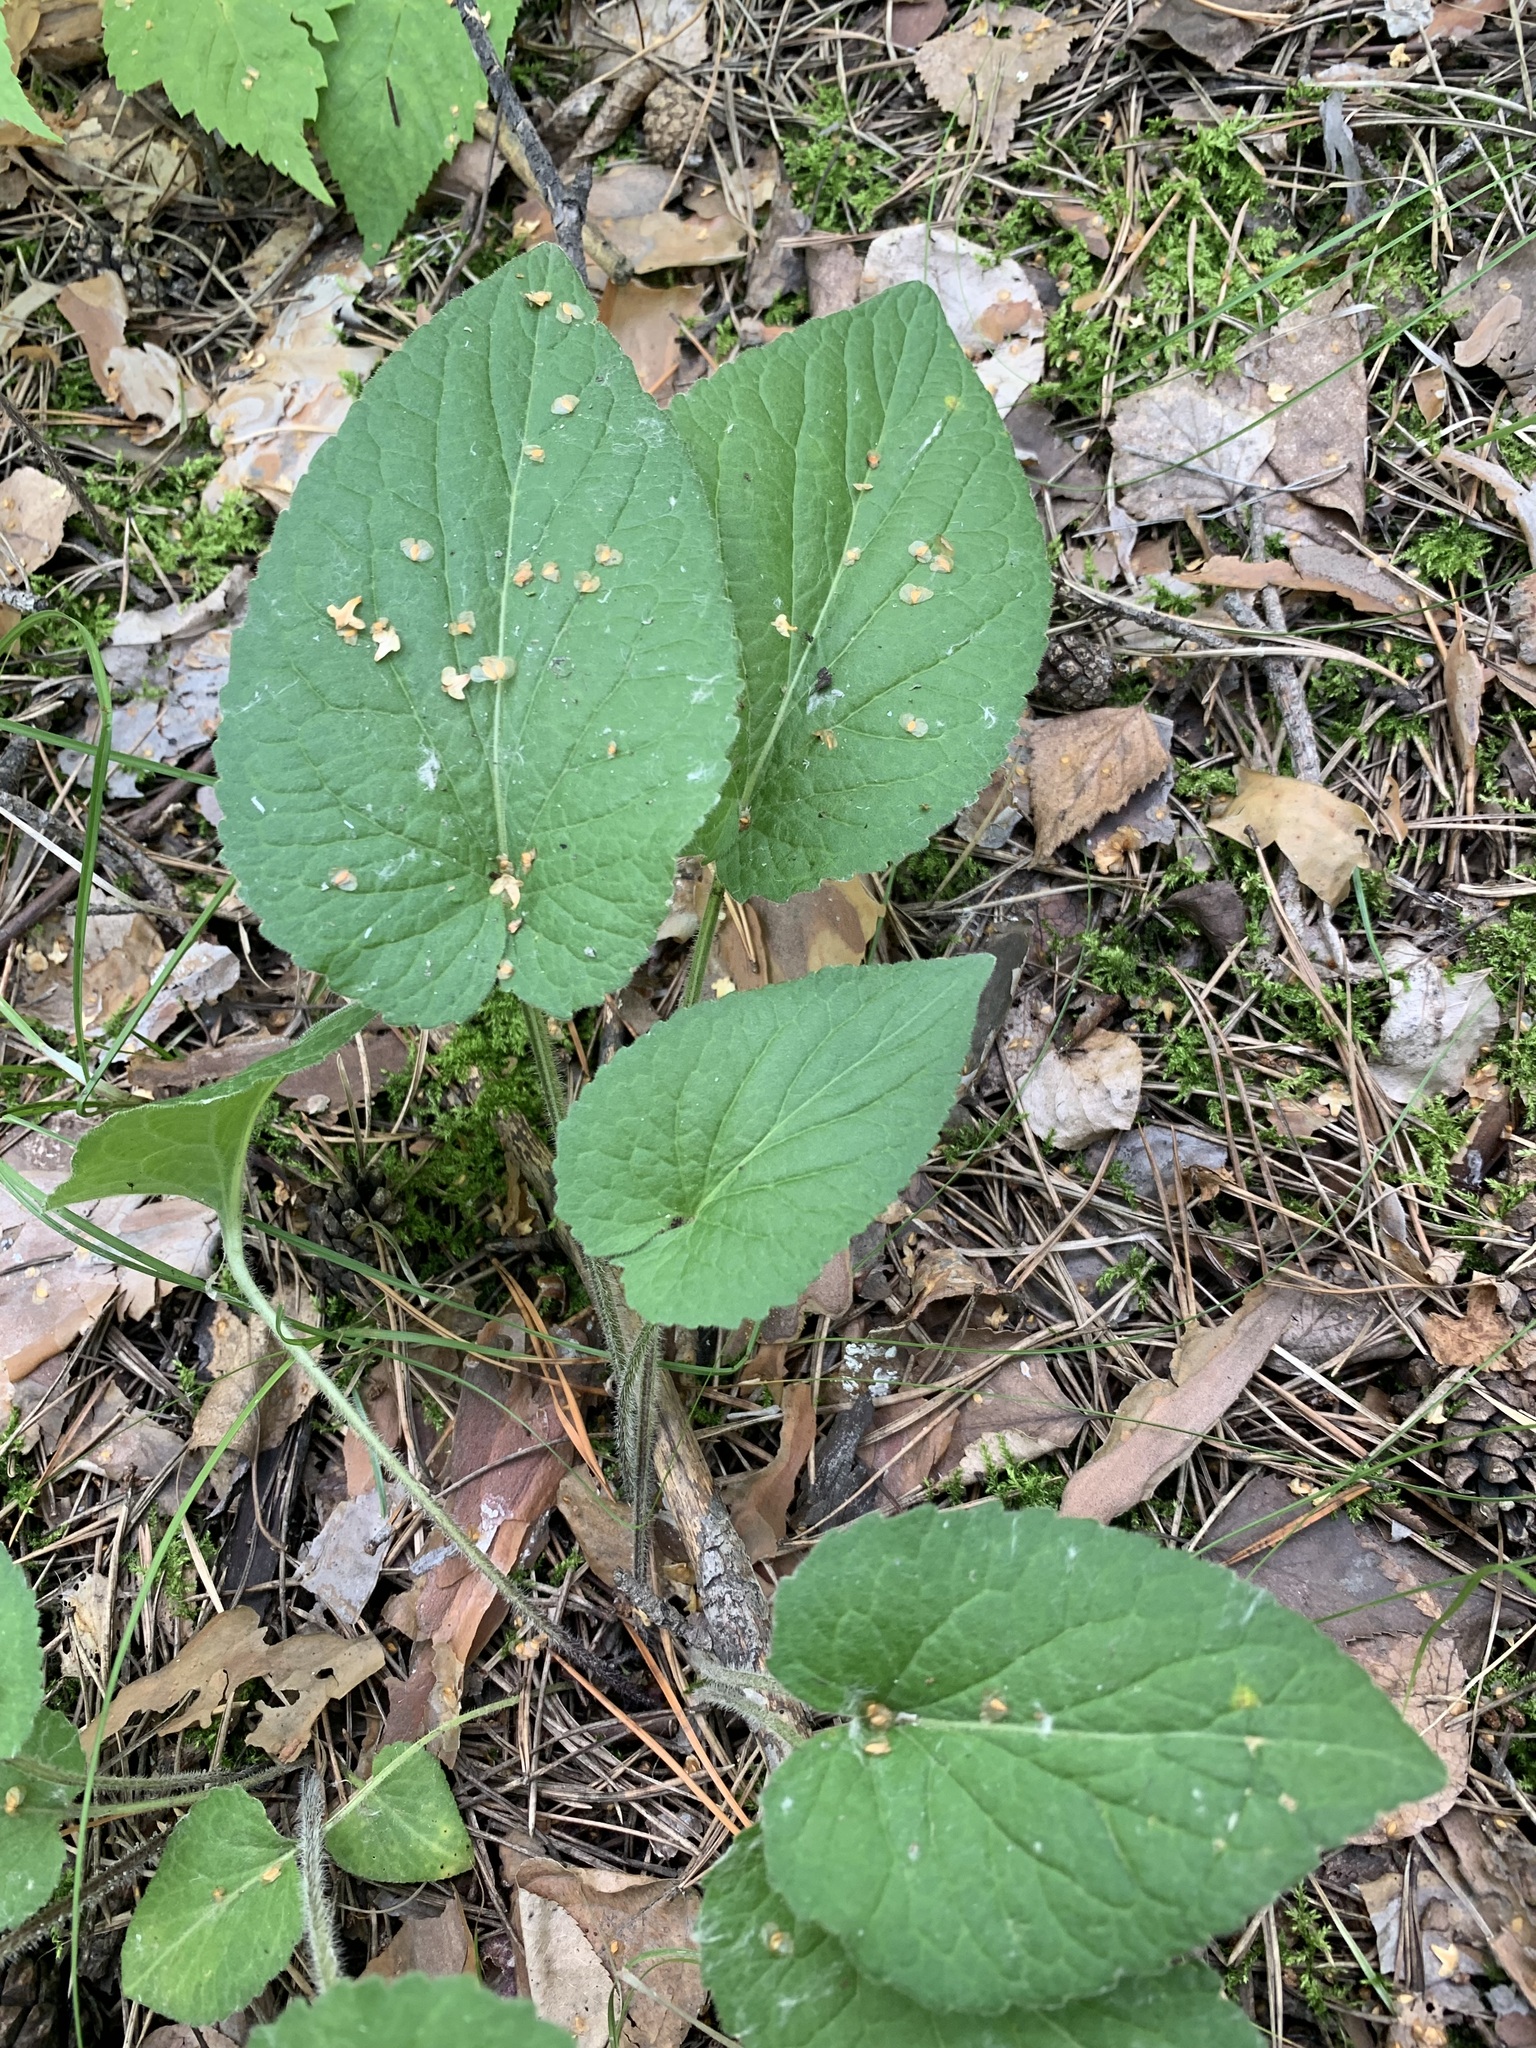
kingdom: Plantae
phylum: Tracheophyta
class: Magnoliopsida
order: Malpighiales
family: Violaceae
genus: Viola
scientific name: Viola hirta
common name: Hairy violet
